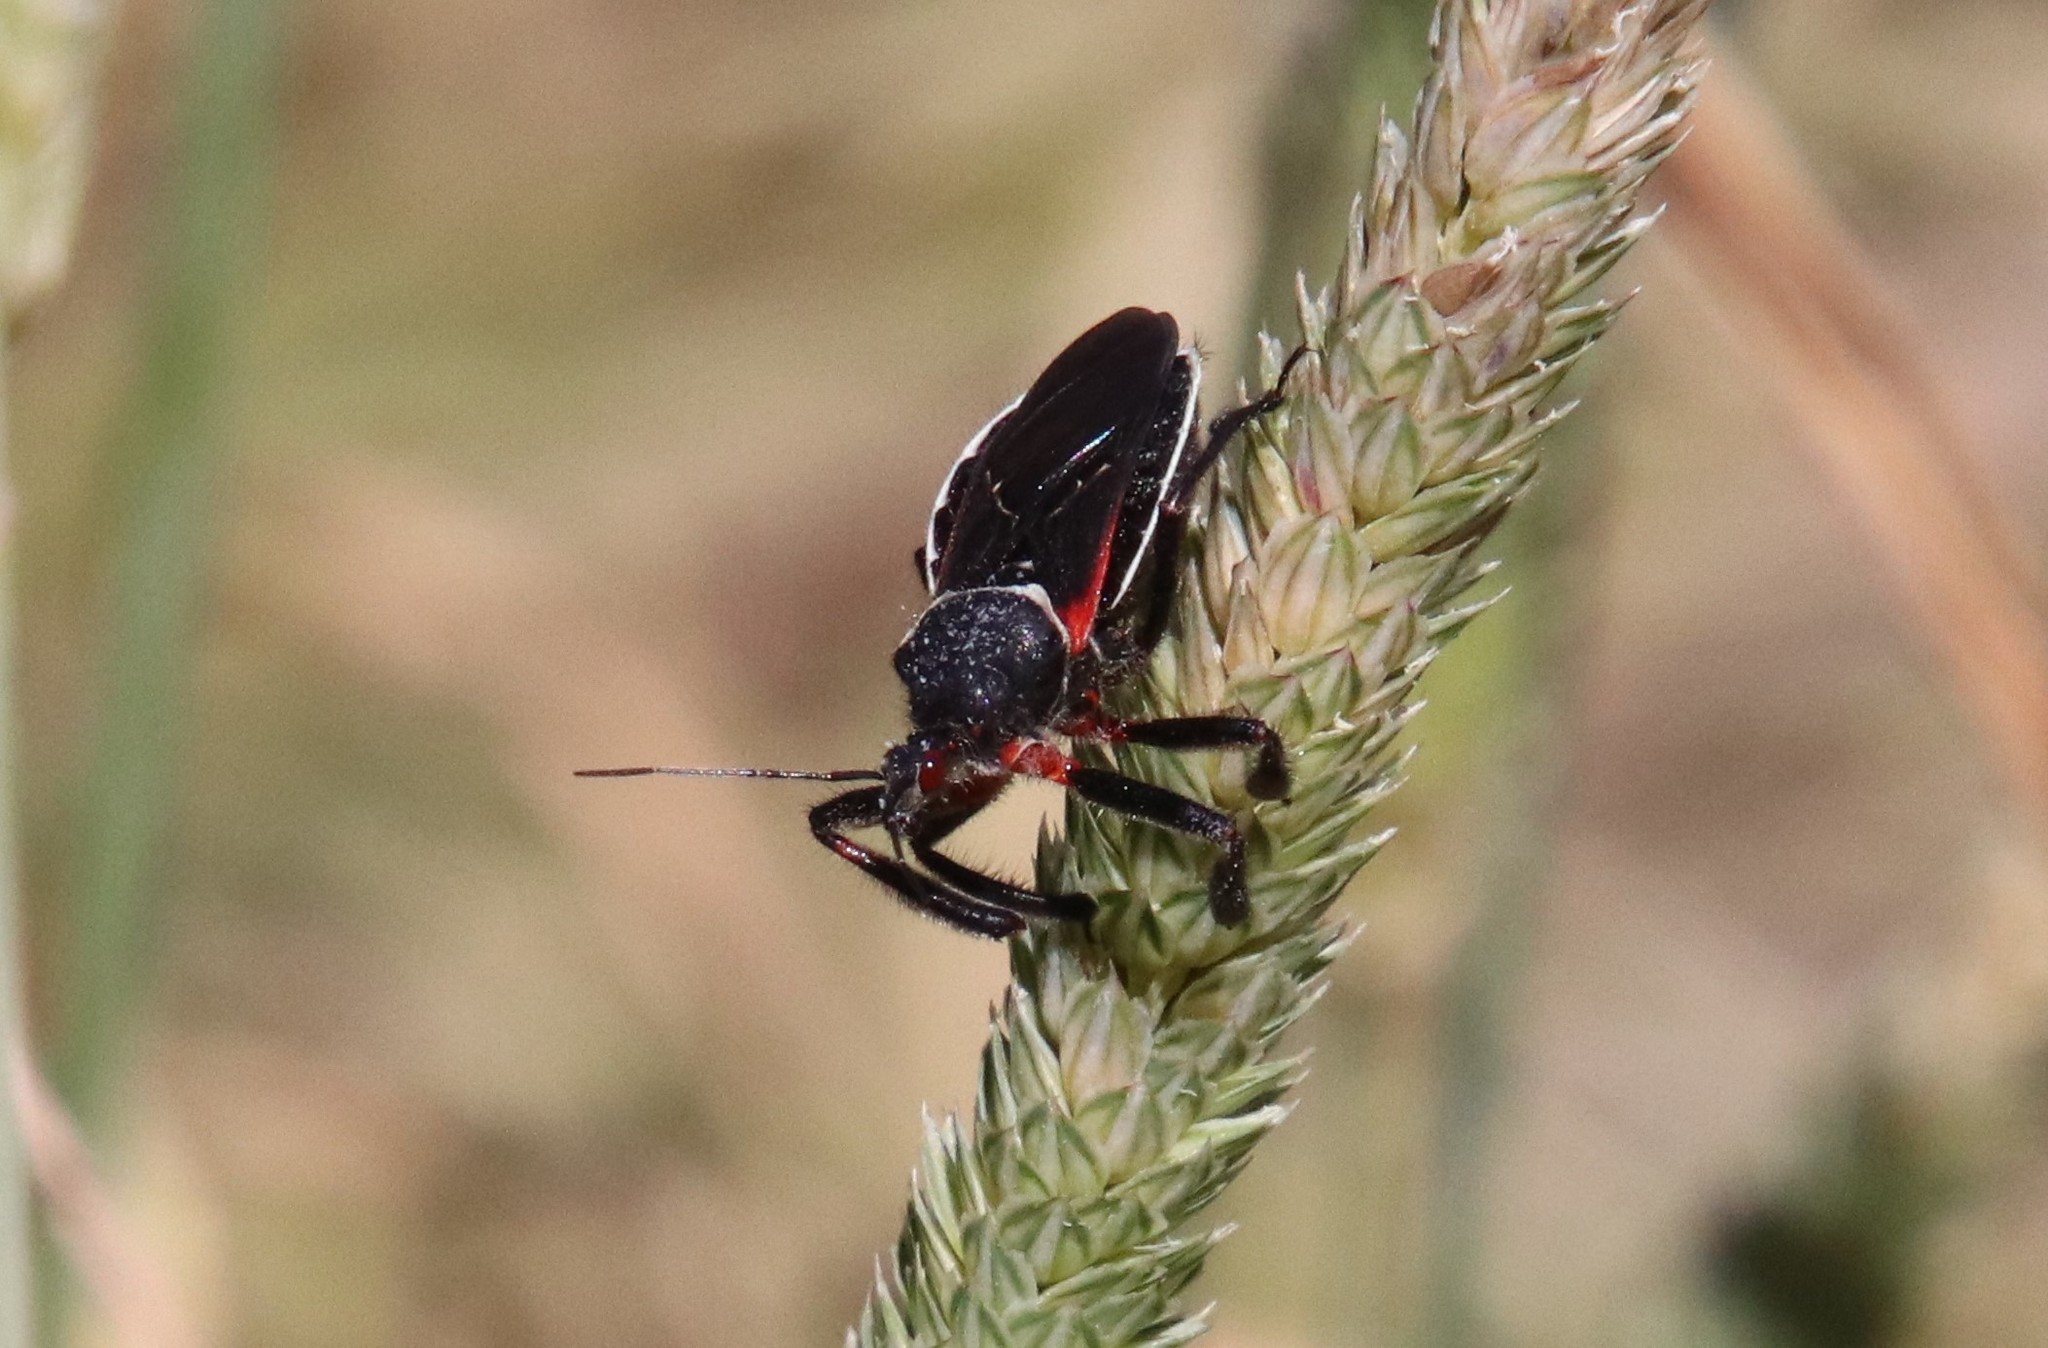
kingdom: Animalia
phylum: Arthropoda
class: Insecta
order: Hemiptera
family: Reduviidae
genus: Apiomerus
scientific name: Apiomerus californicus
